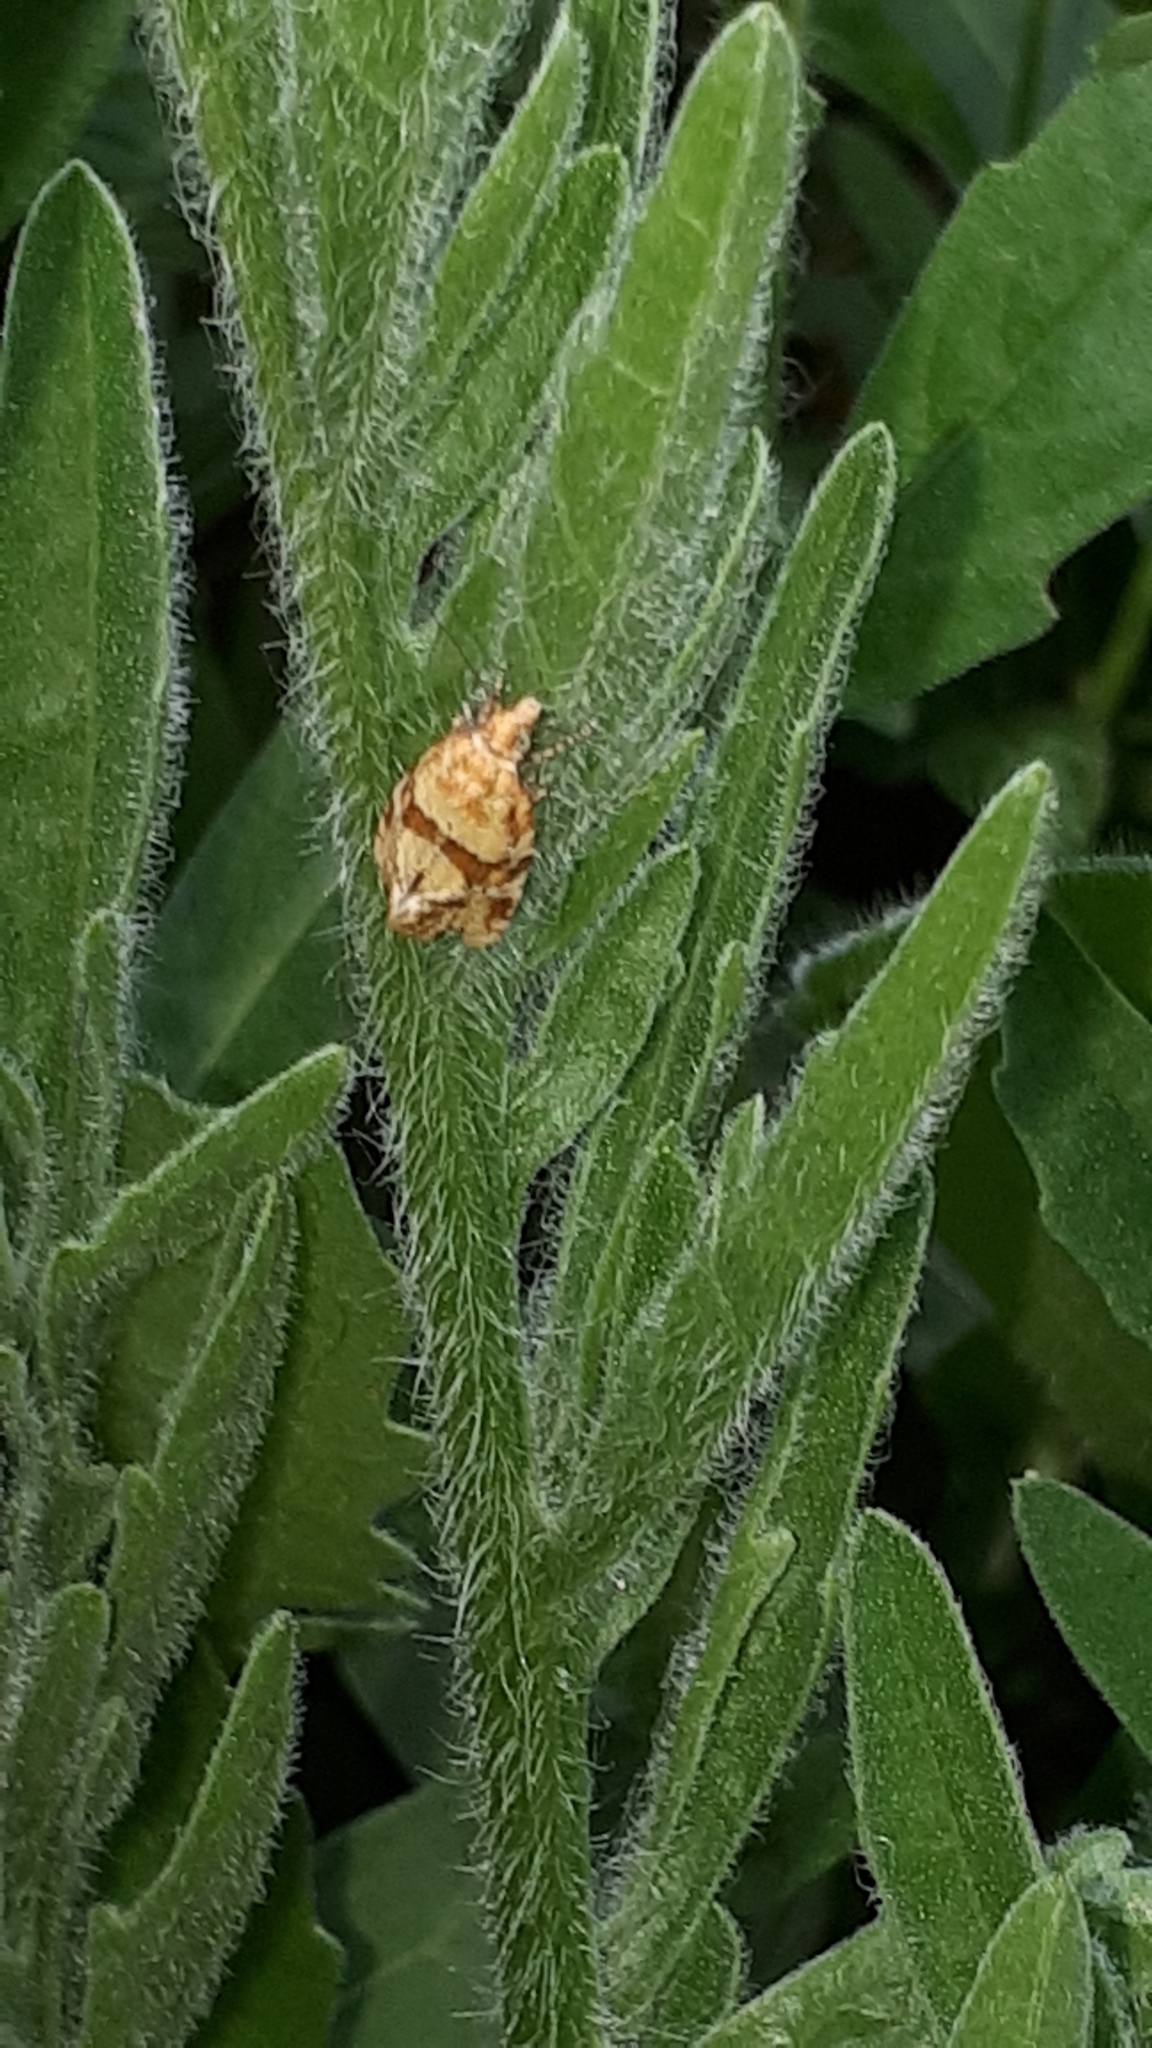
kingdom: Animalia
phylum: Arthropoda
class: Insecta
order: Lepidoptera
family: Tortricidae
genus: Aethes
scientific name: Aethes hartmanniana
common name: Scabious conch
